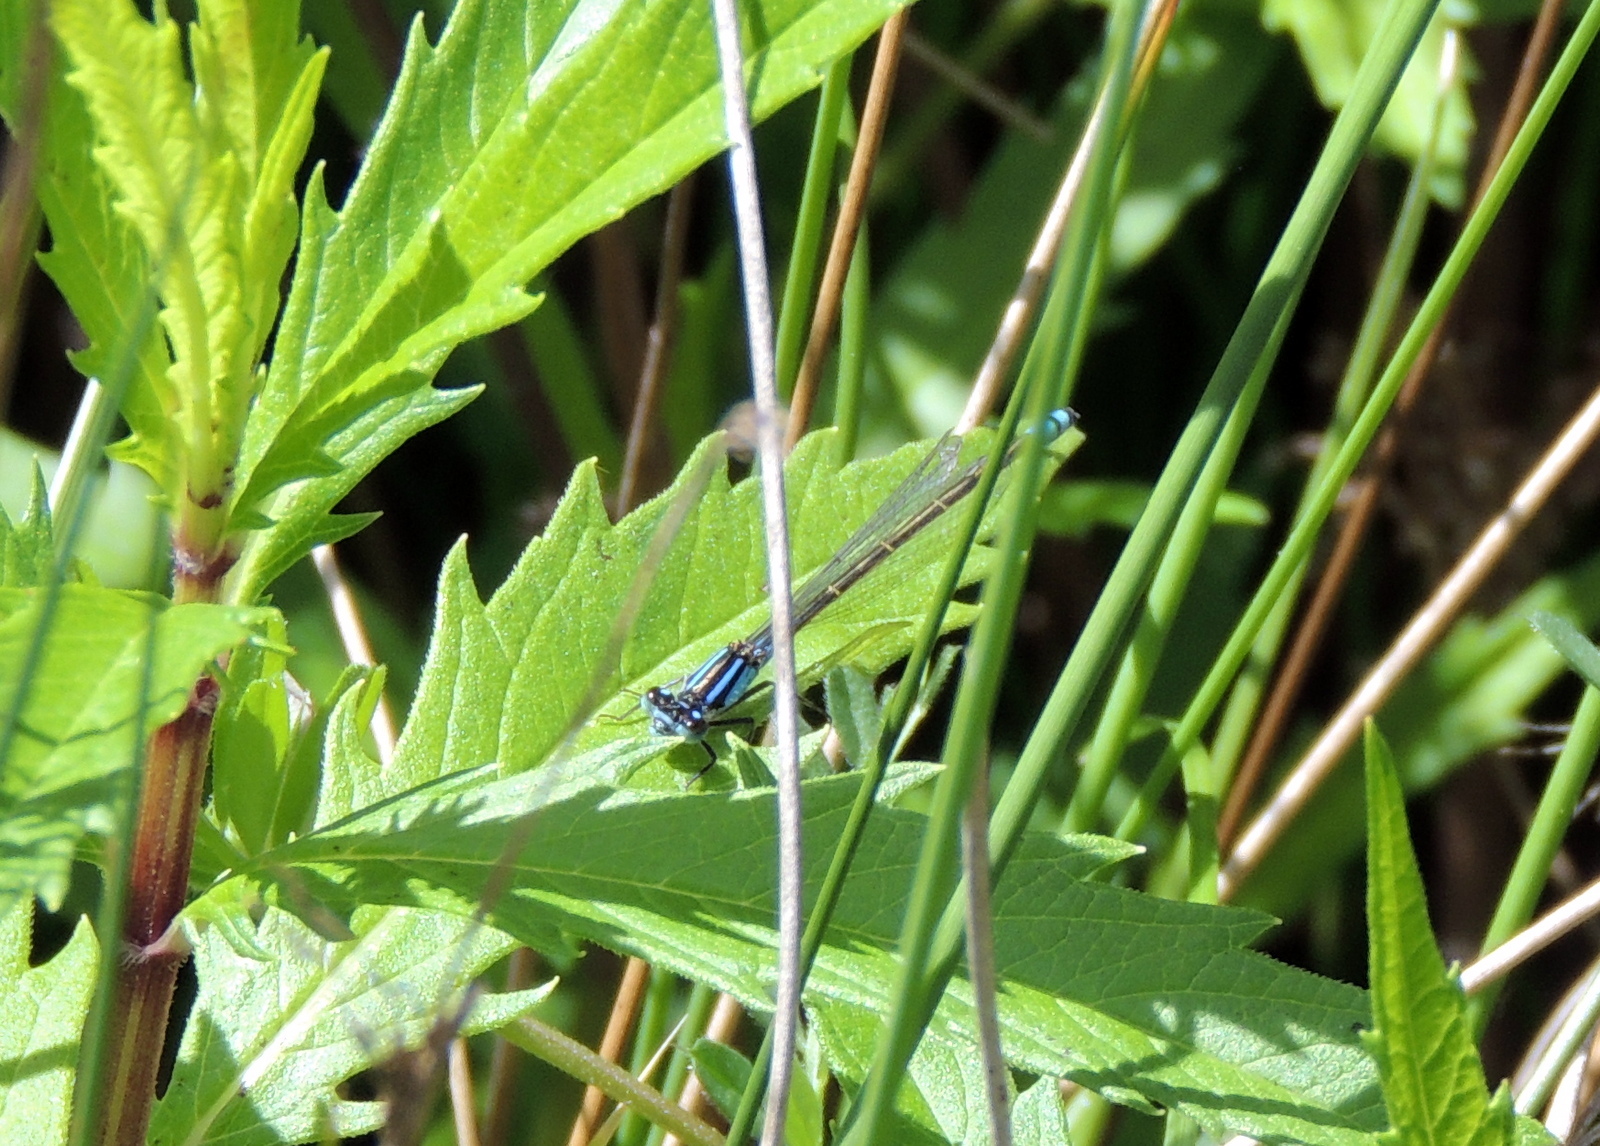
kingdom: Animalia
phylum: Arthropoda
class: Insecta
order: Odonata
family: Coenagrionidae
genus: Ischnura
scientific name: Ischnura heterosticta
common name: Common bluetail
